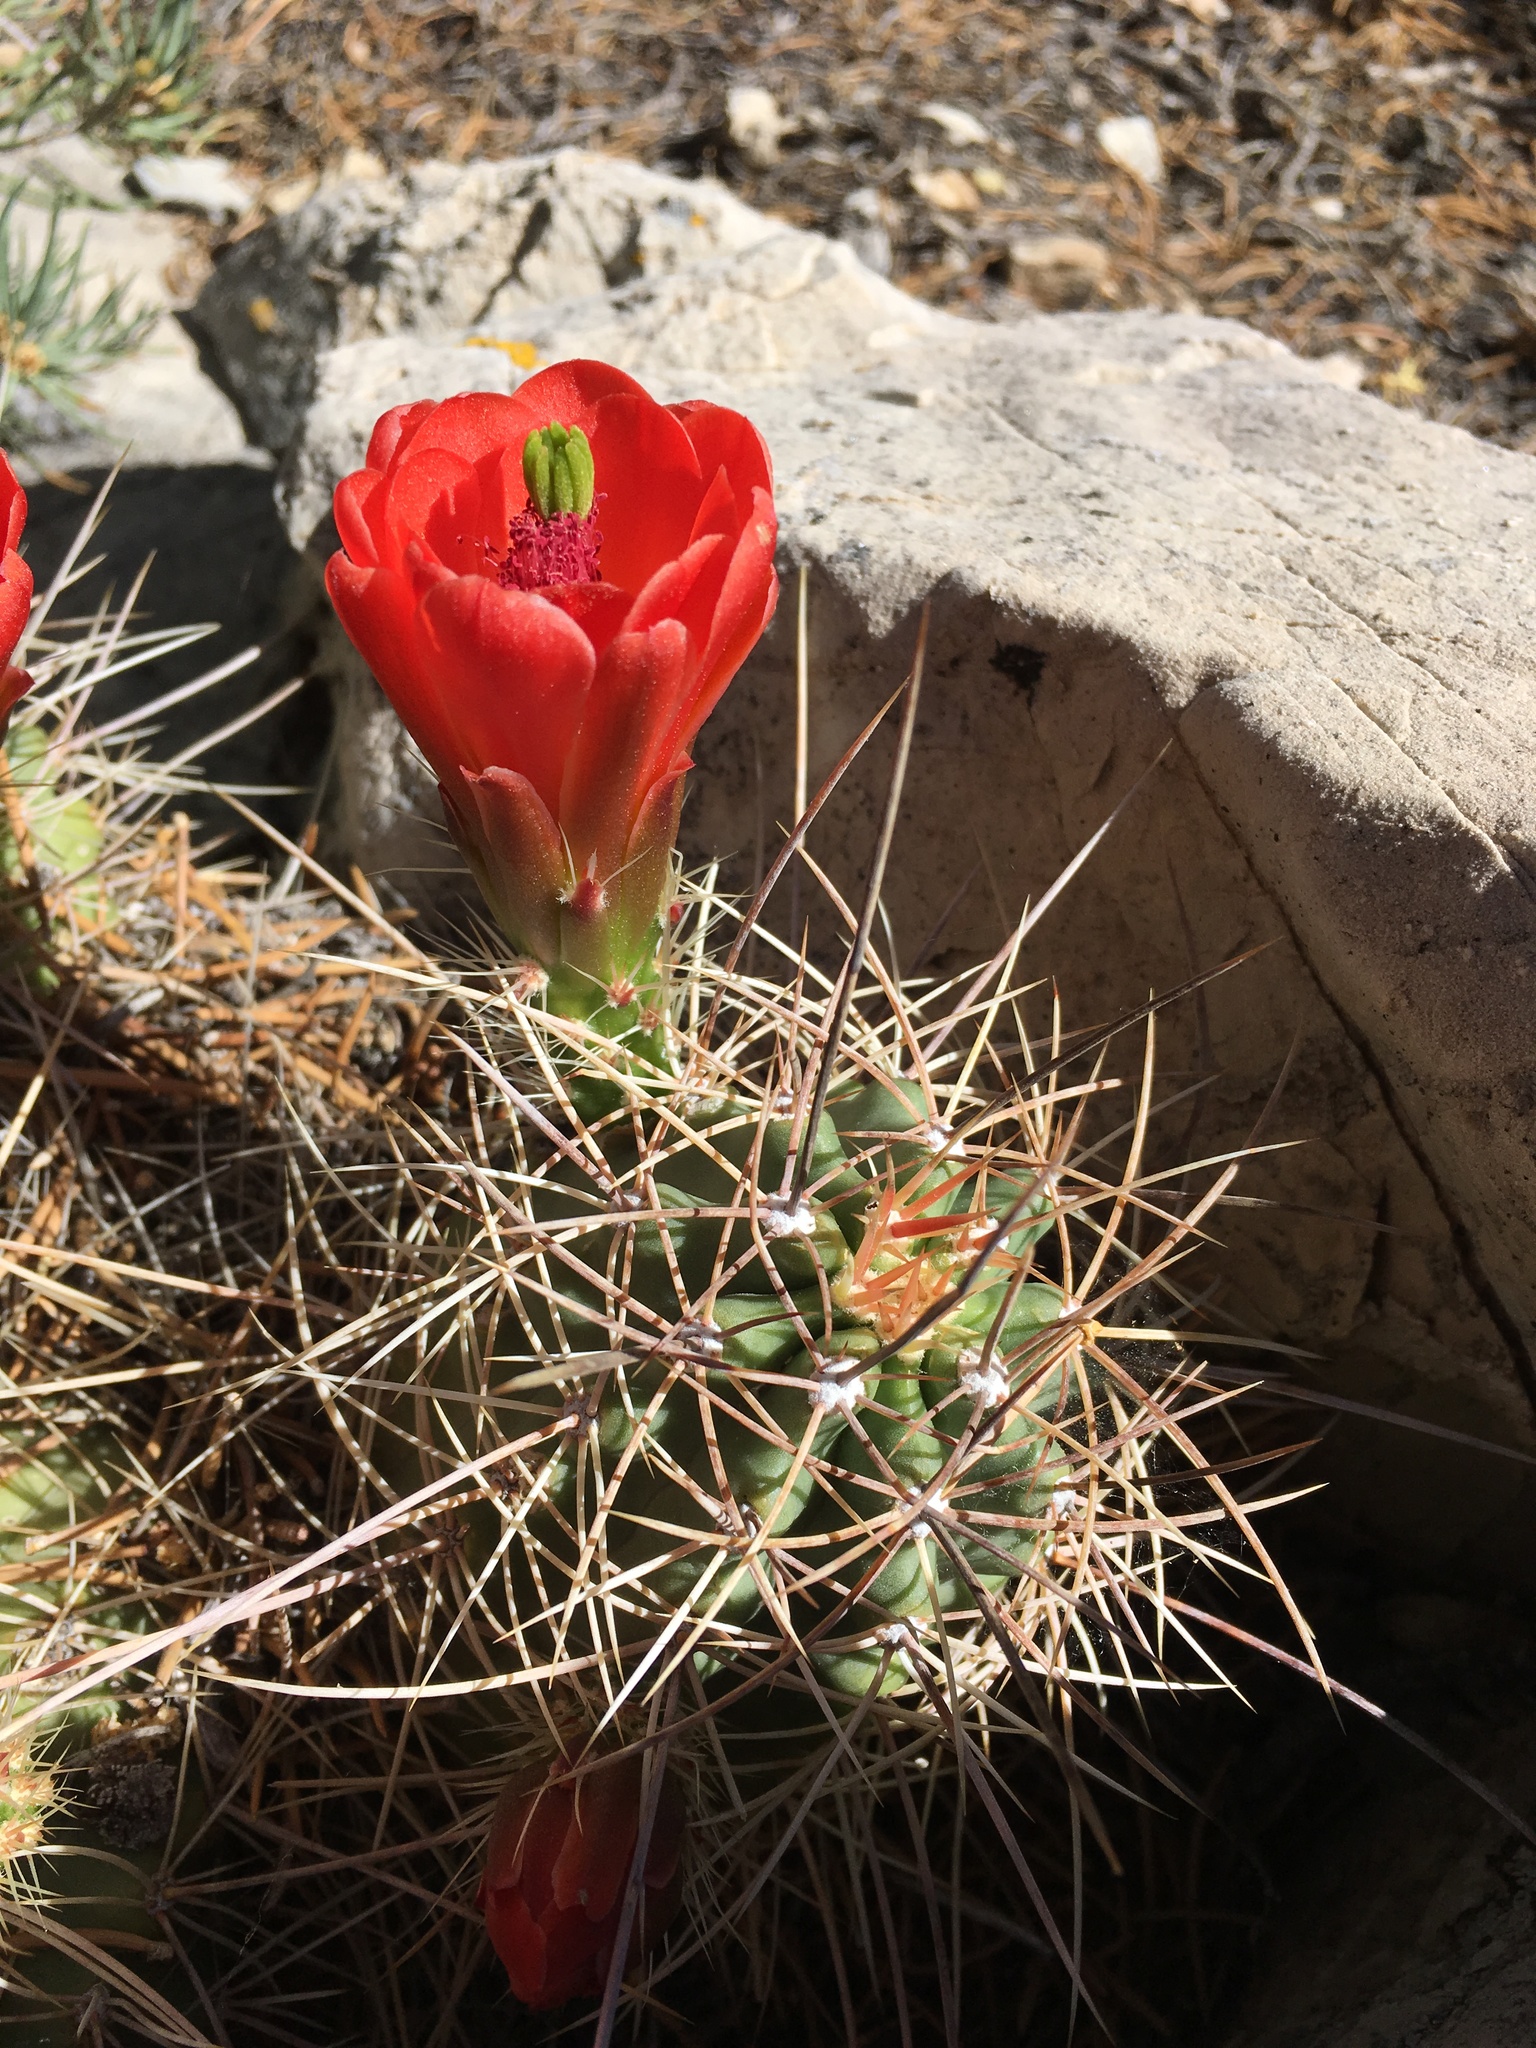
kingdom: Plantae
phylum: Tracheophyta
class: Magnoliopsida
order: Caryophyllales
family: Cactaceae
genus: Echinocereus
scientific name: Echinocereus triglochidiatus
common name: Claretcup hedgehog
